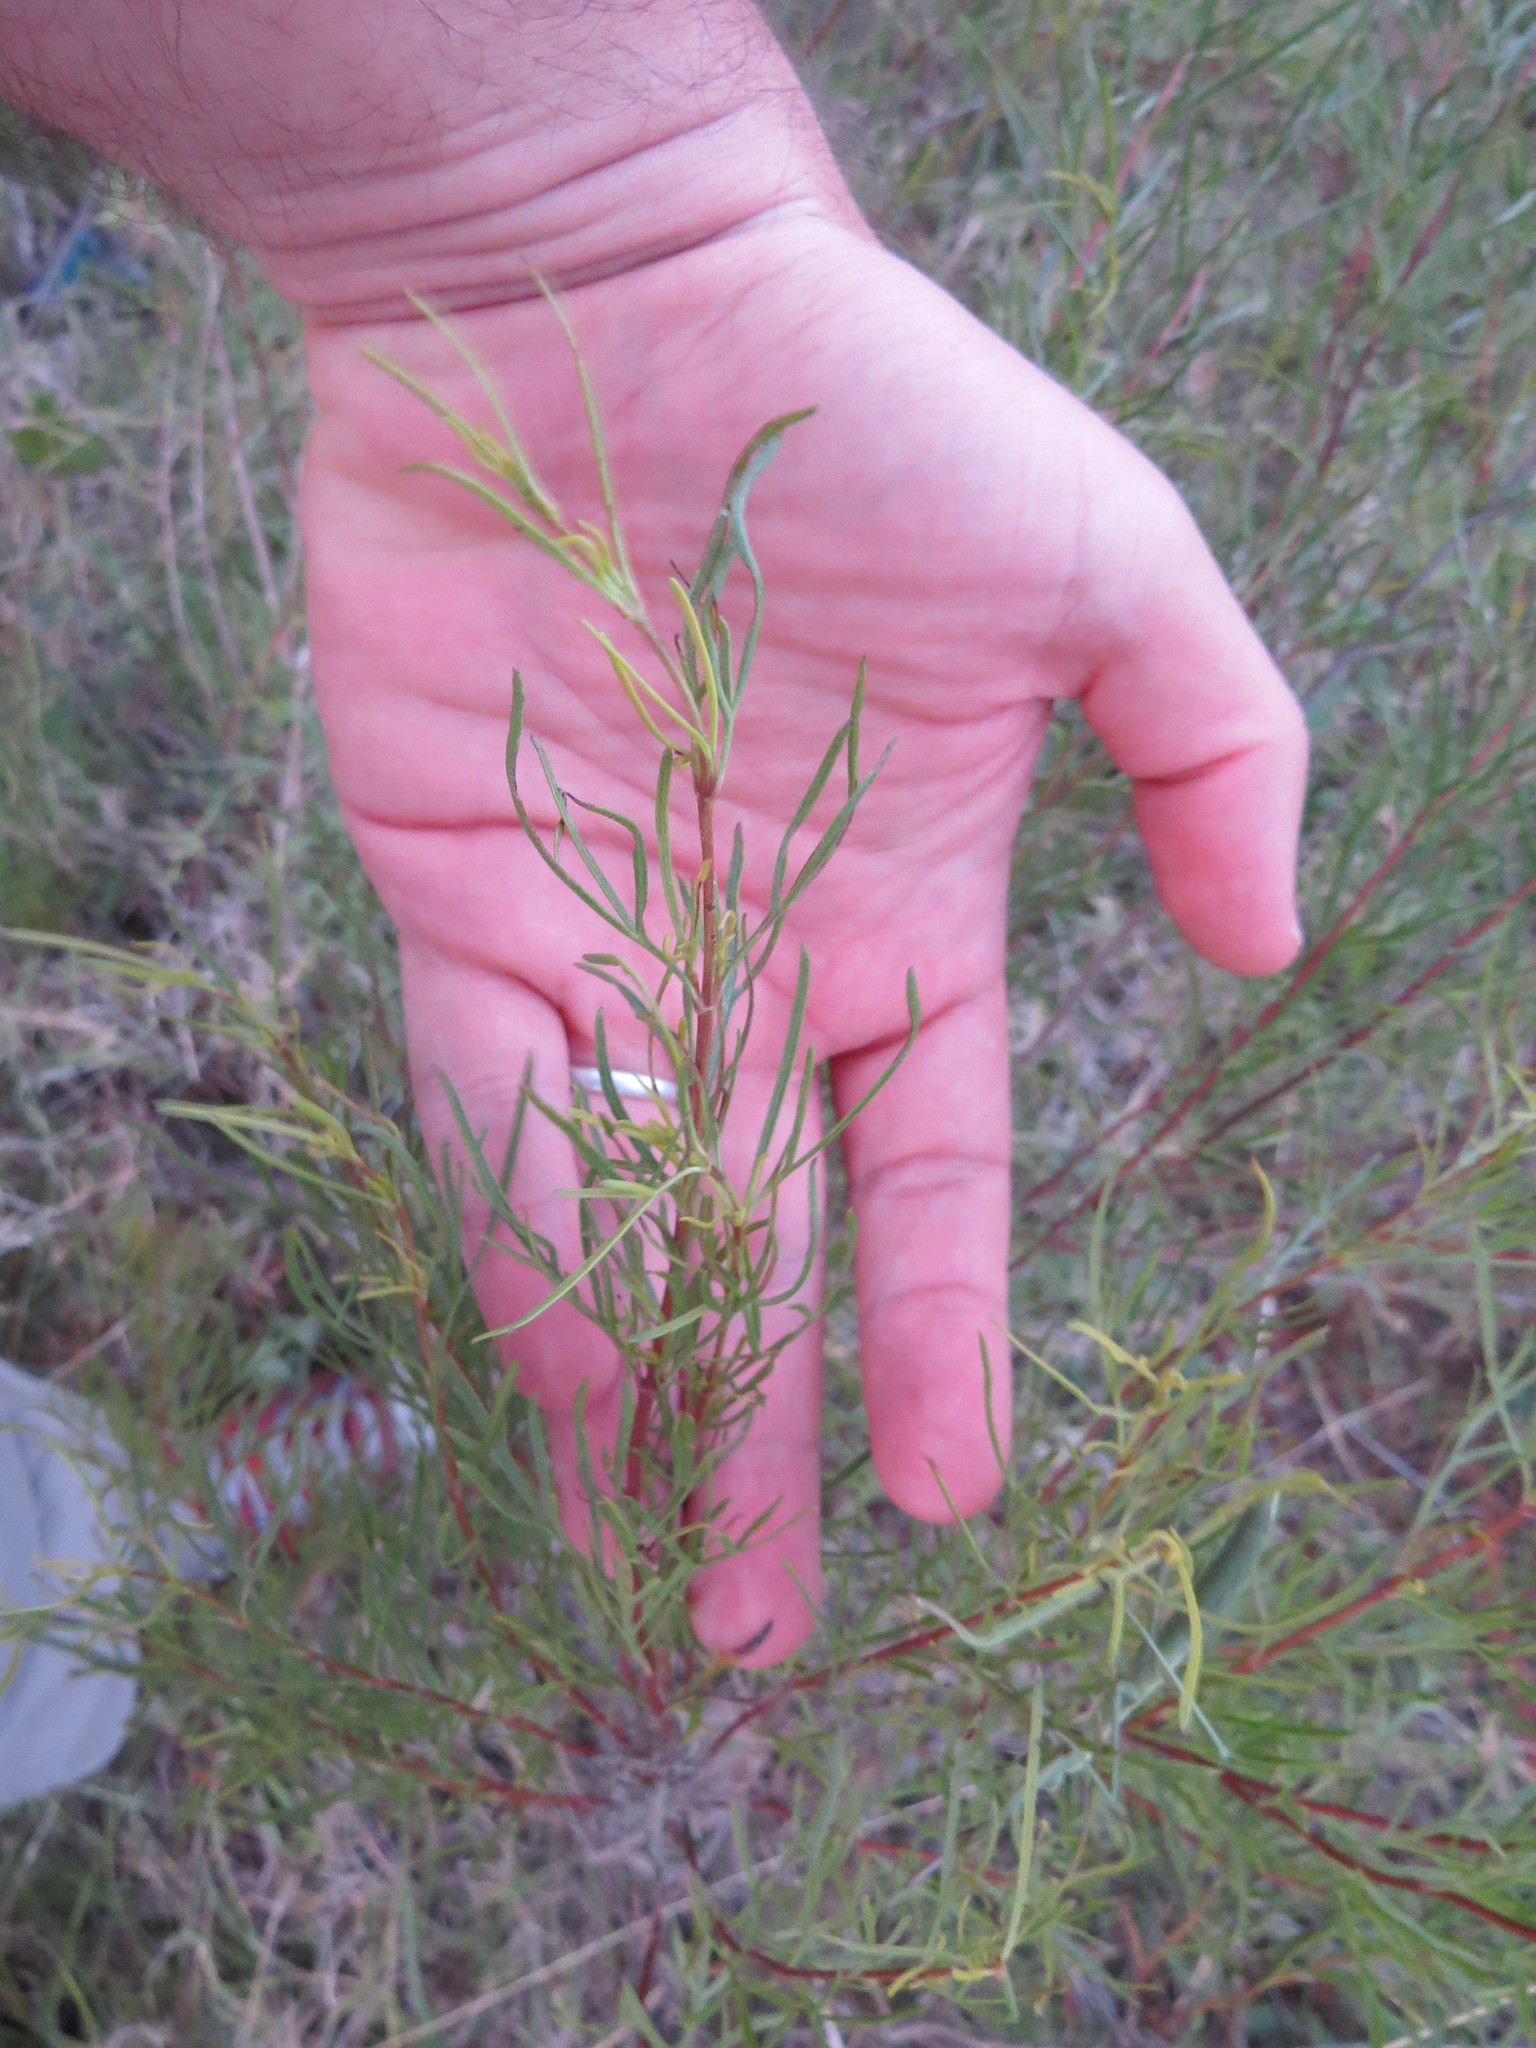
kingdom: Plantae
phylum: Tracheophyta
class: Magnoliopsida
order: Asterales
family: Asteraceae
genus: Acanthostyles
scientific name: Acanthostyles buniifolius
